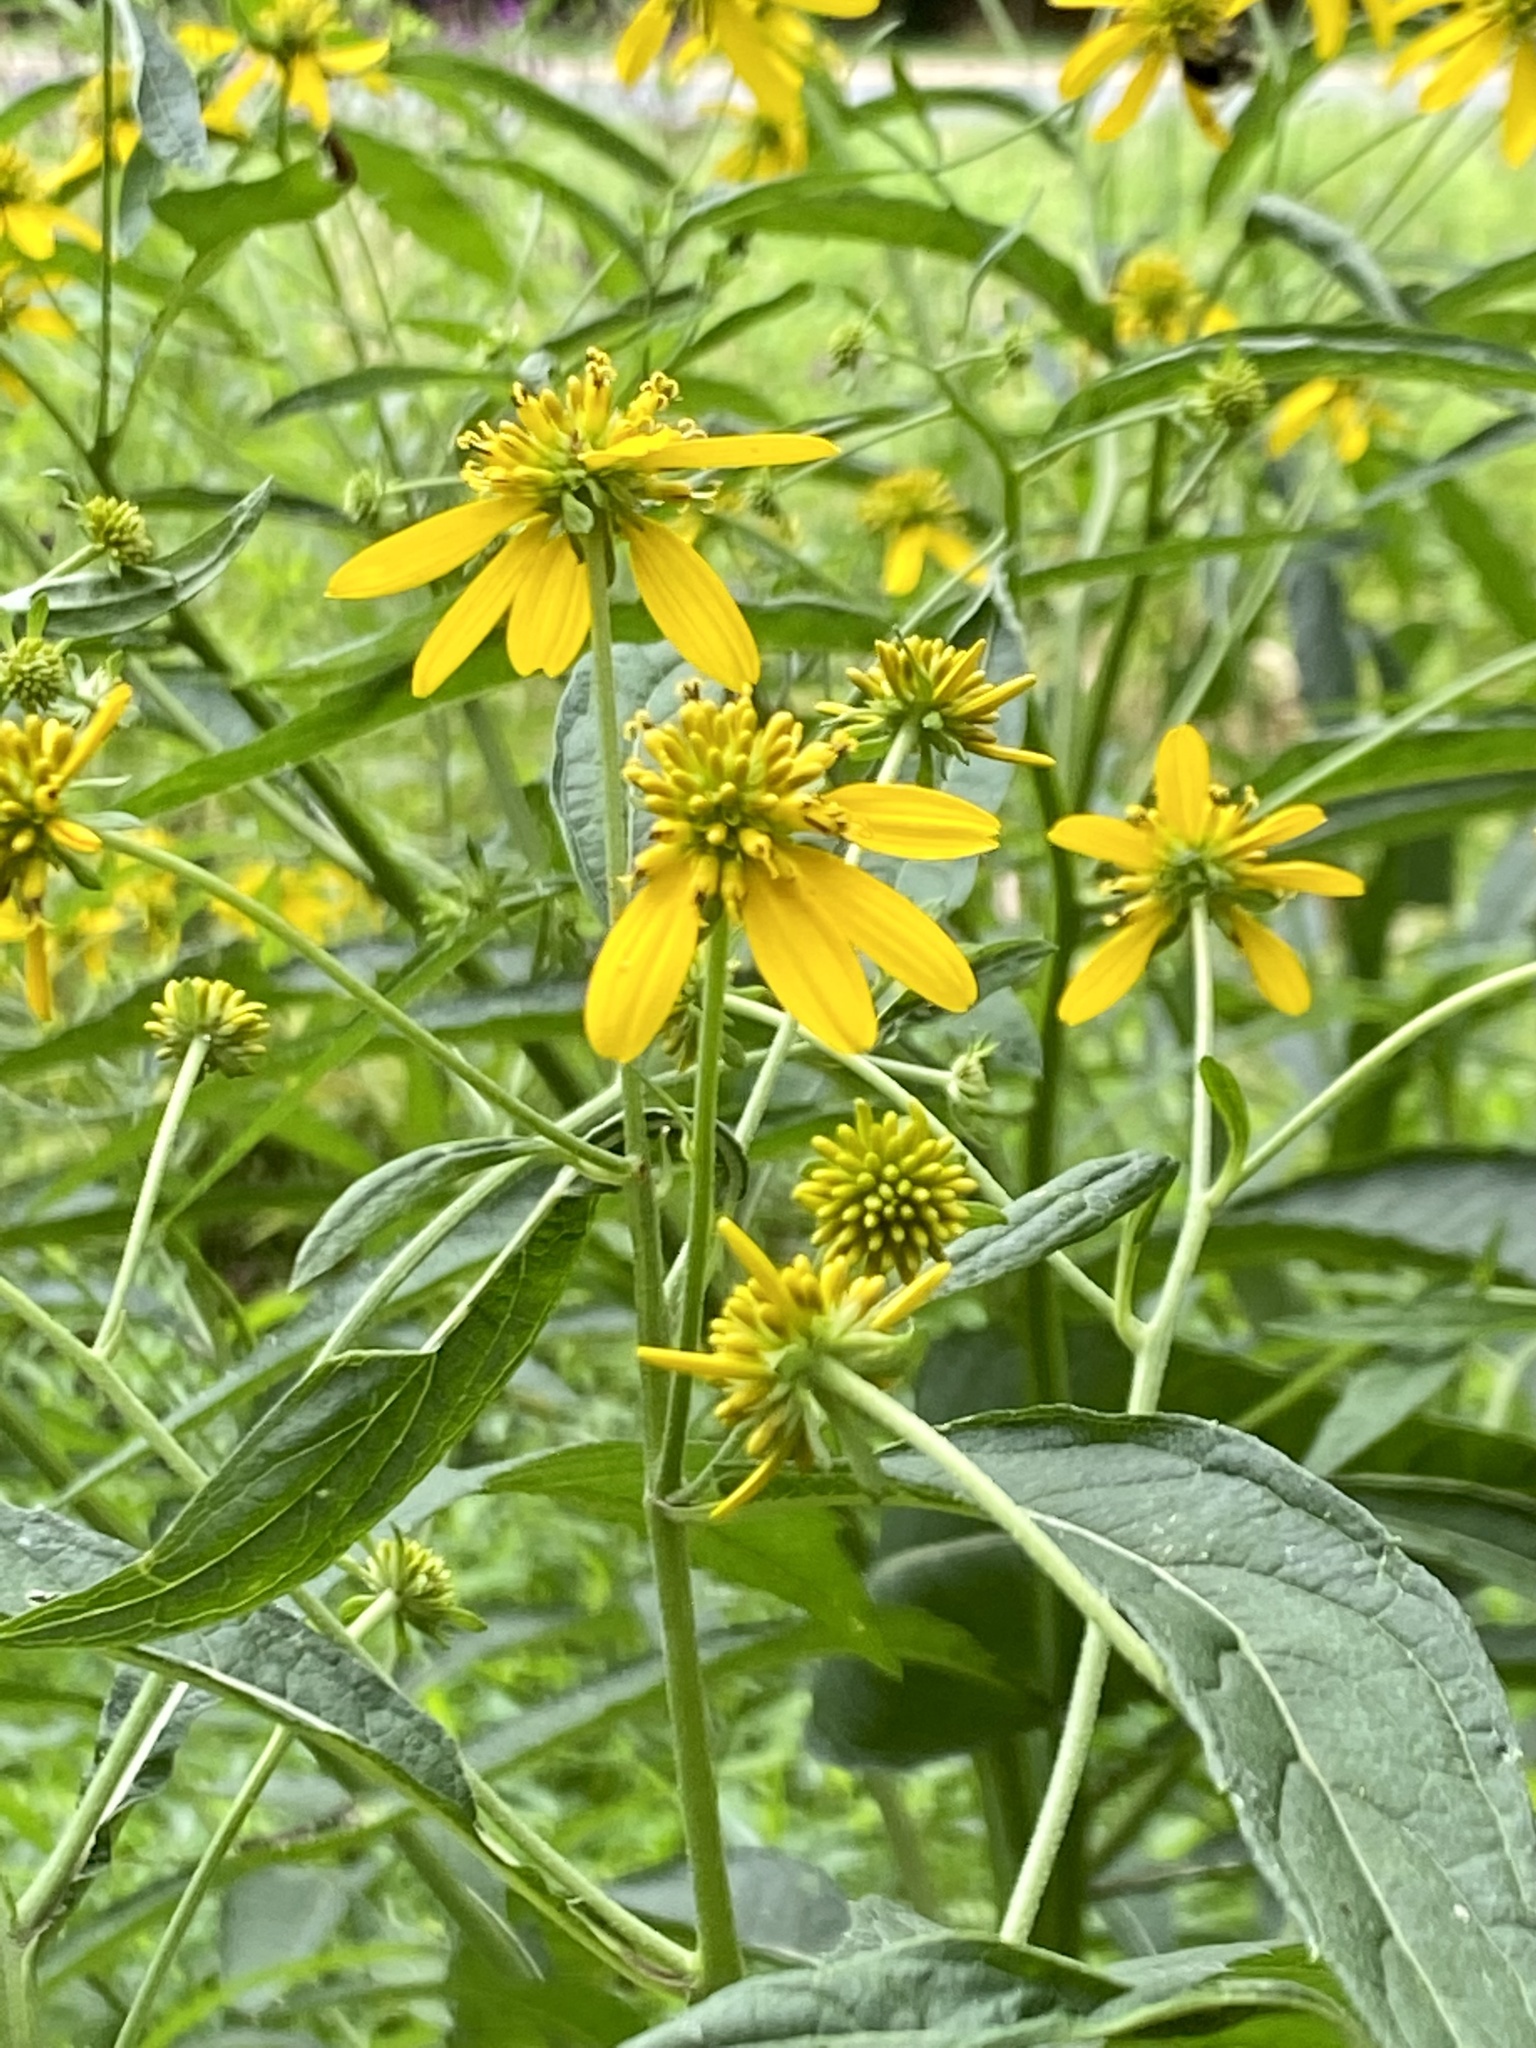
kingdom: Plantae
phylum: Tracheophyta
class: Magnoliopsida
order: Asterales
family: Asteraceae
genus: Verbesina
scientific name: Verbesina alternifolia
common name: Wingstem
